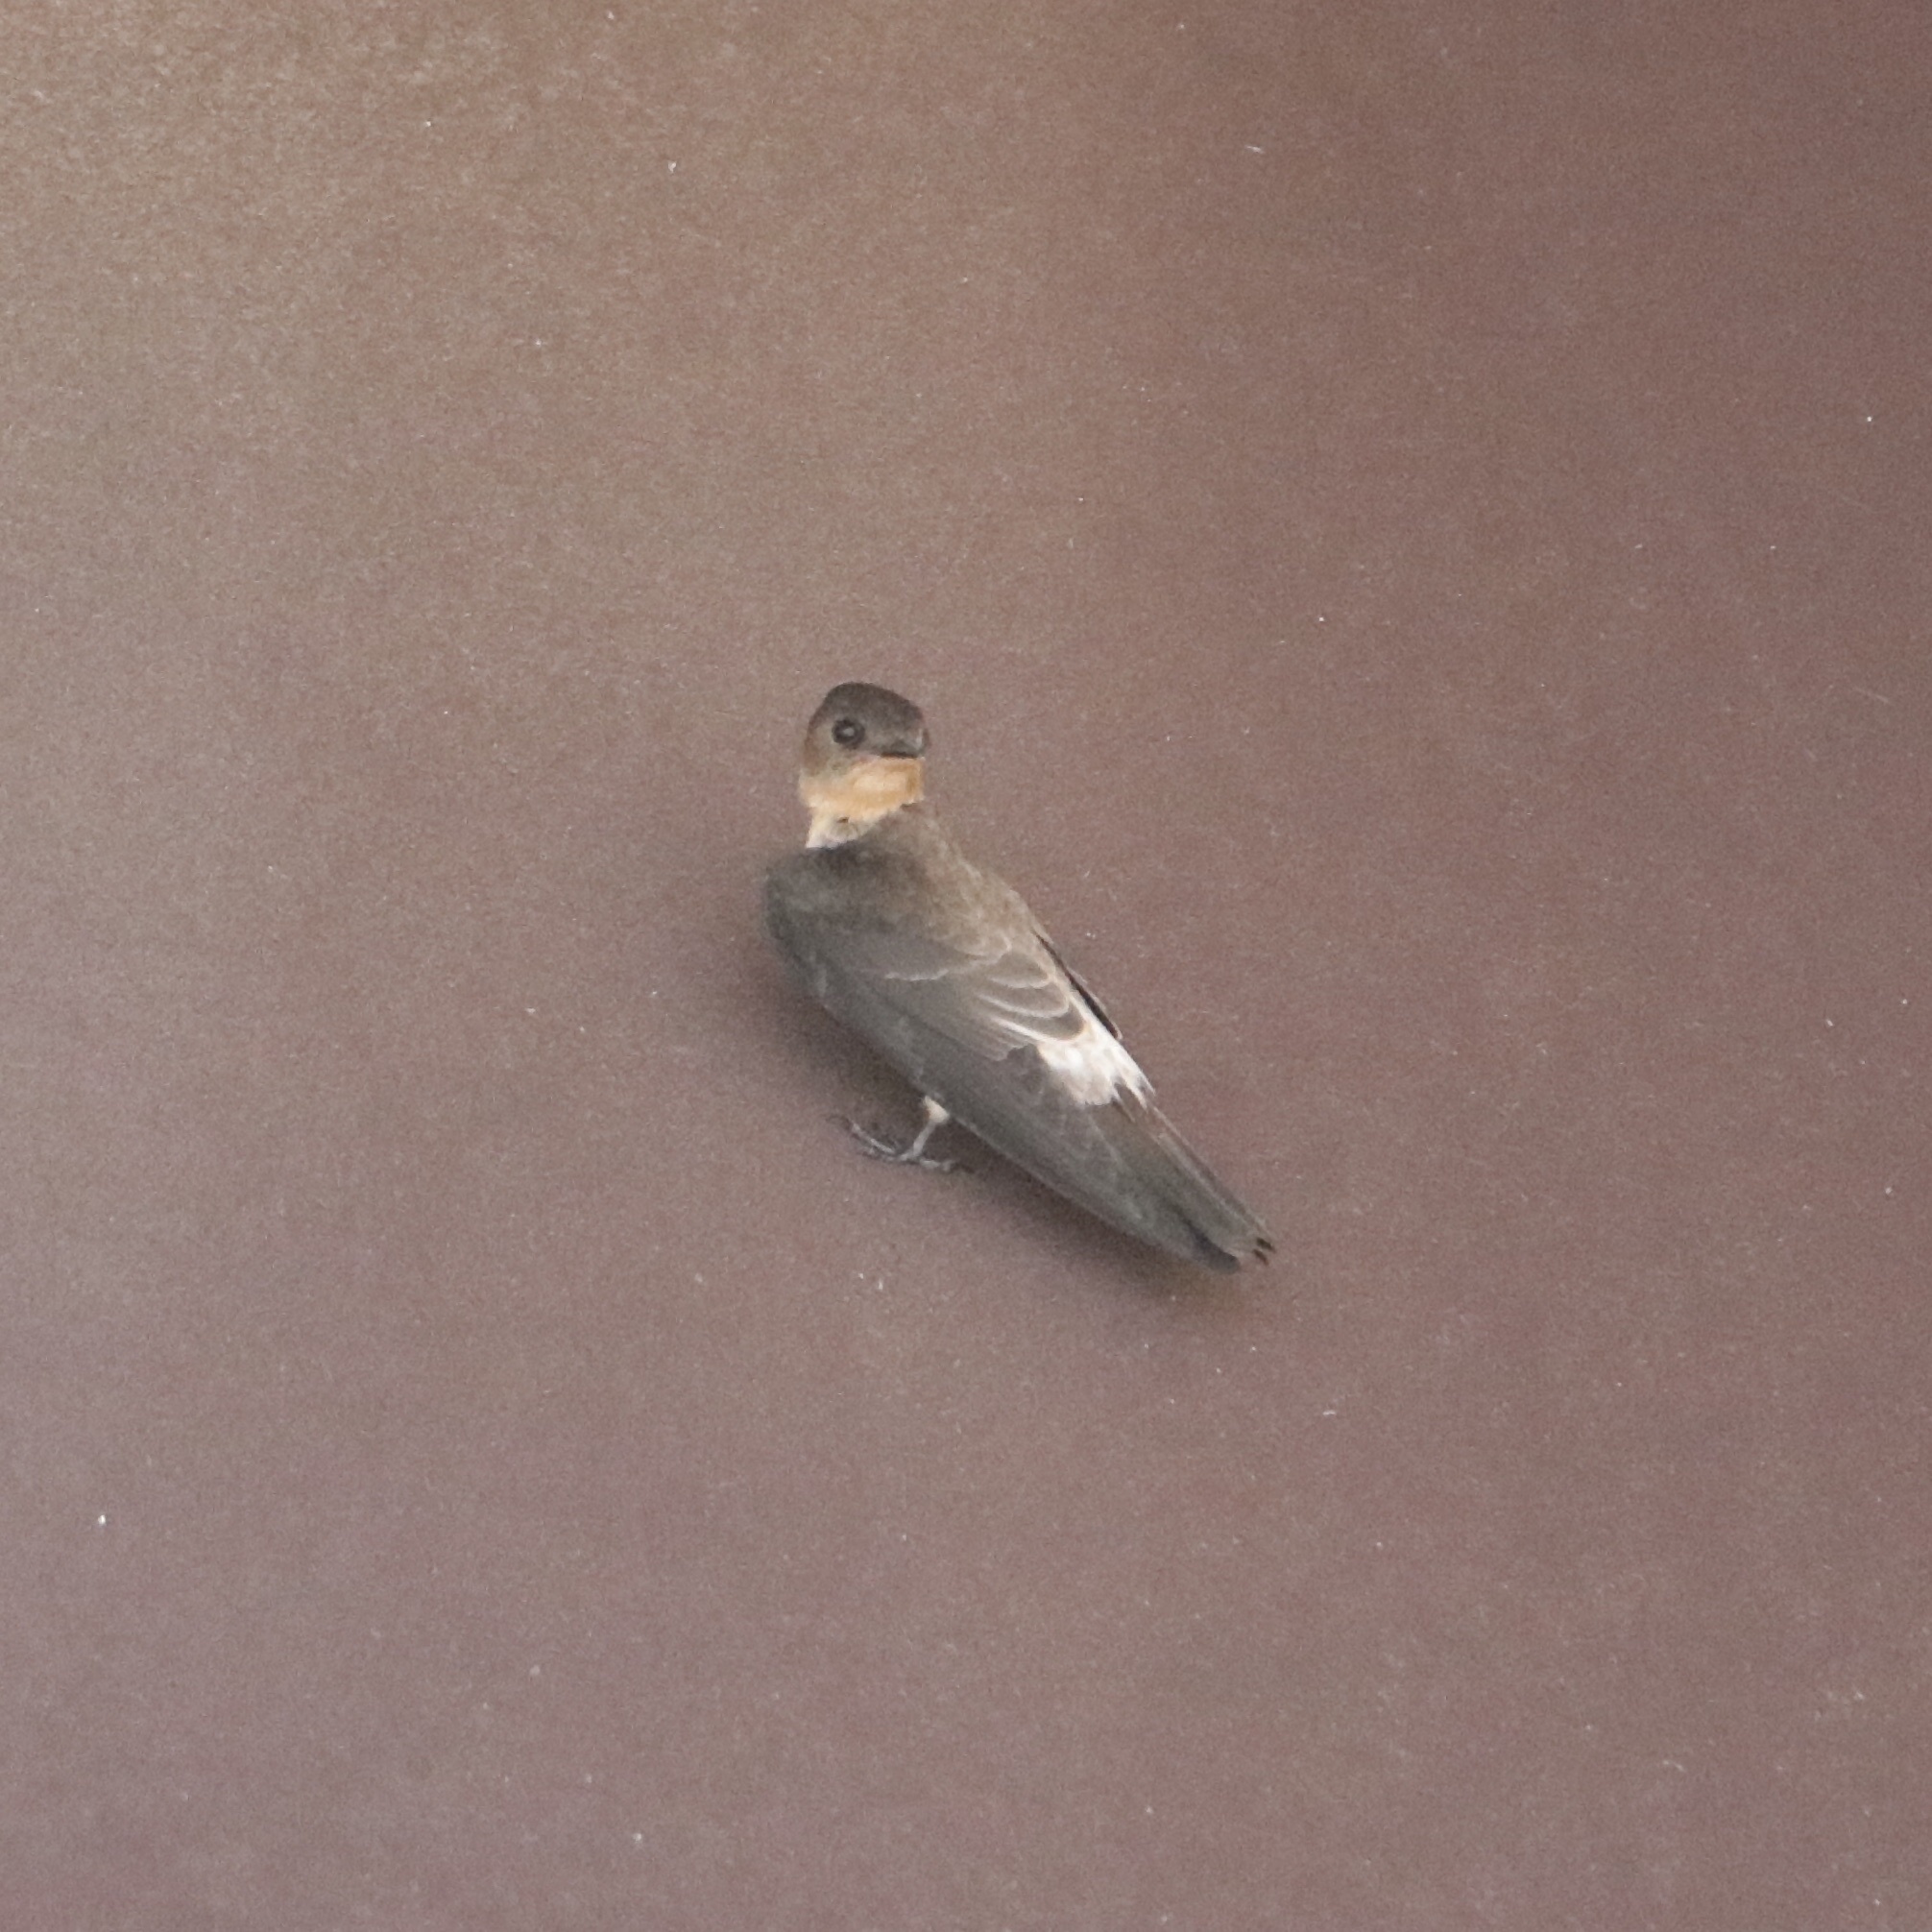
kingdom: Animalia
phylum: Chordata
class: Aves
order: Passeriformes
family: Hirundinidae
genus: Stelgidopteryx
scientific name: Stelgidopteryx ruficollis
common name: Southern rough-winged swallow
